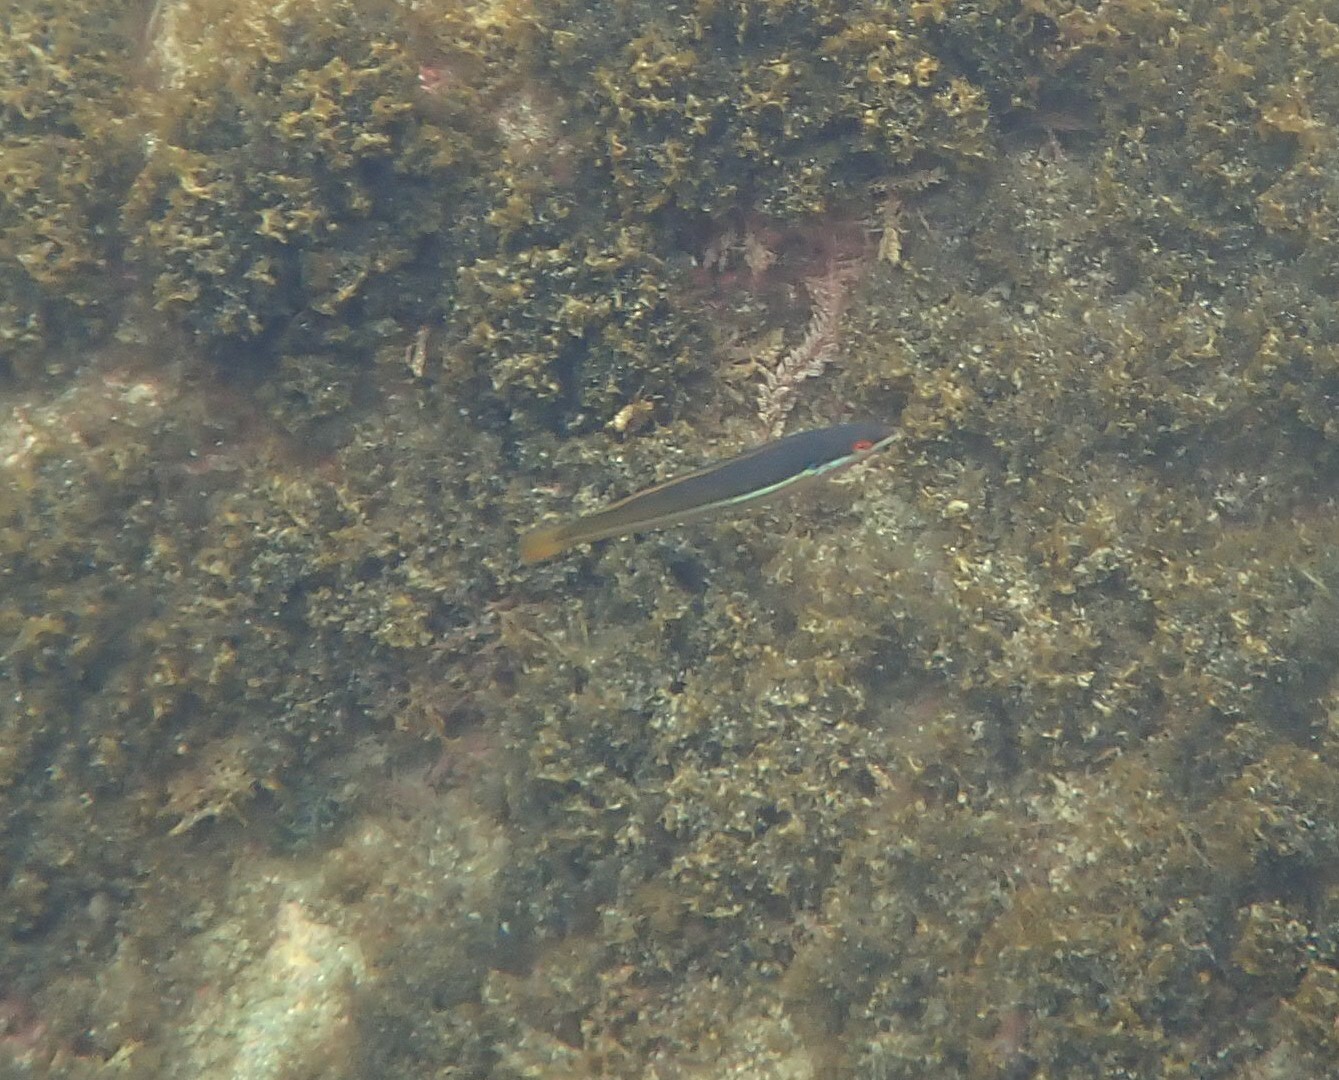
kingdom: Animalia
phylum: Chordata
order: Perciformes
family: Labridae
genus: Coris
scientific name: Coris
